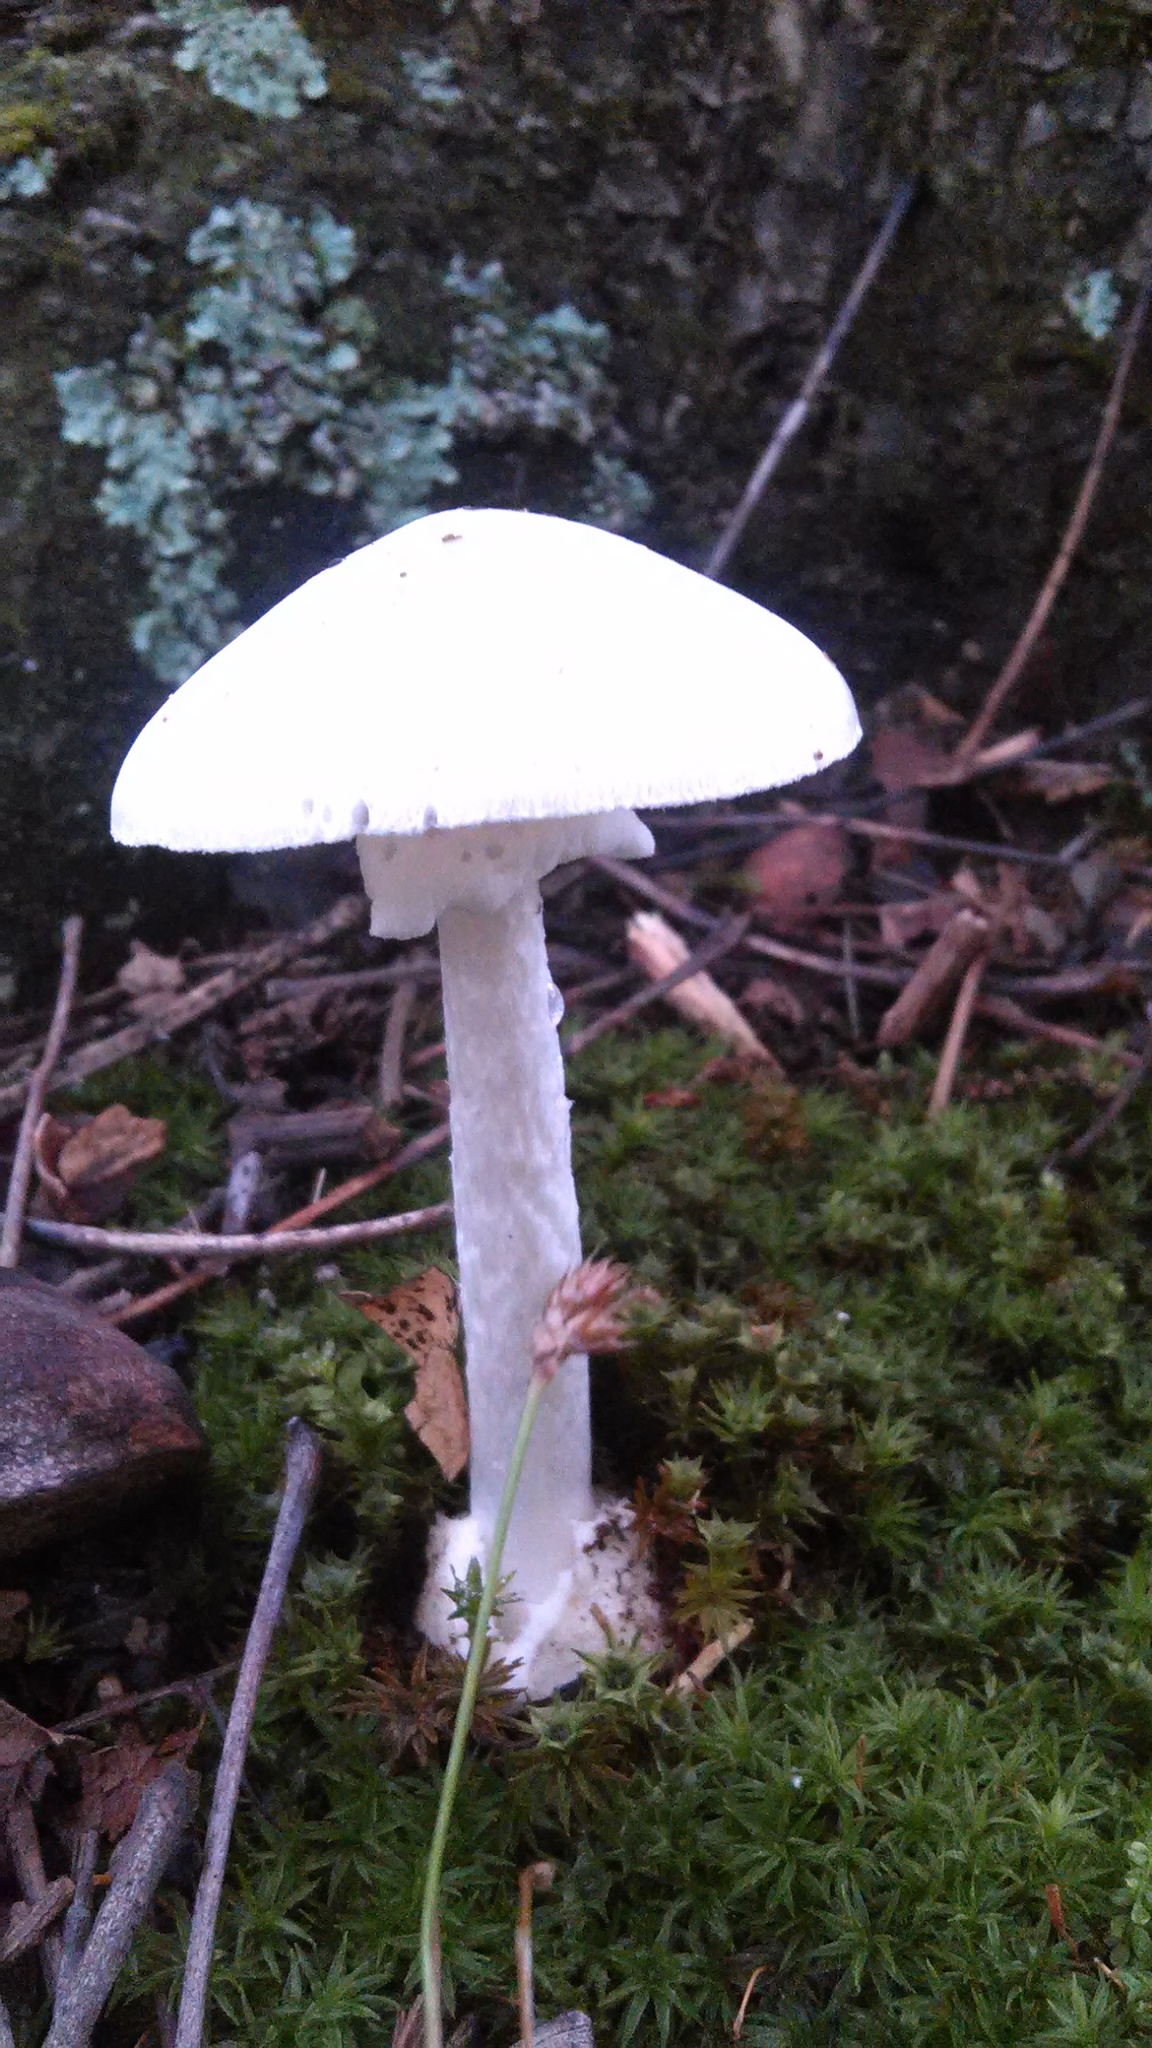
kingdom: Fungi
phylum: Basidiomycota
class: Agaricomycetes
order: Agaricales
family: Amanitaceae
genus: Amanita
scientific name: Amanita bisporigera
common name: Eastern north american destroying angel
